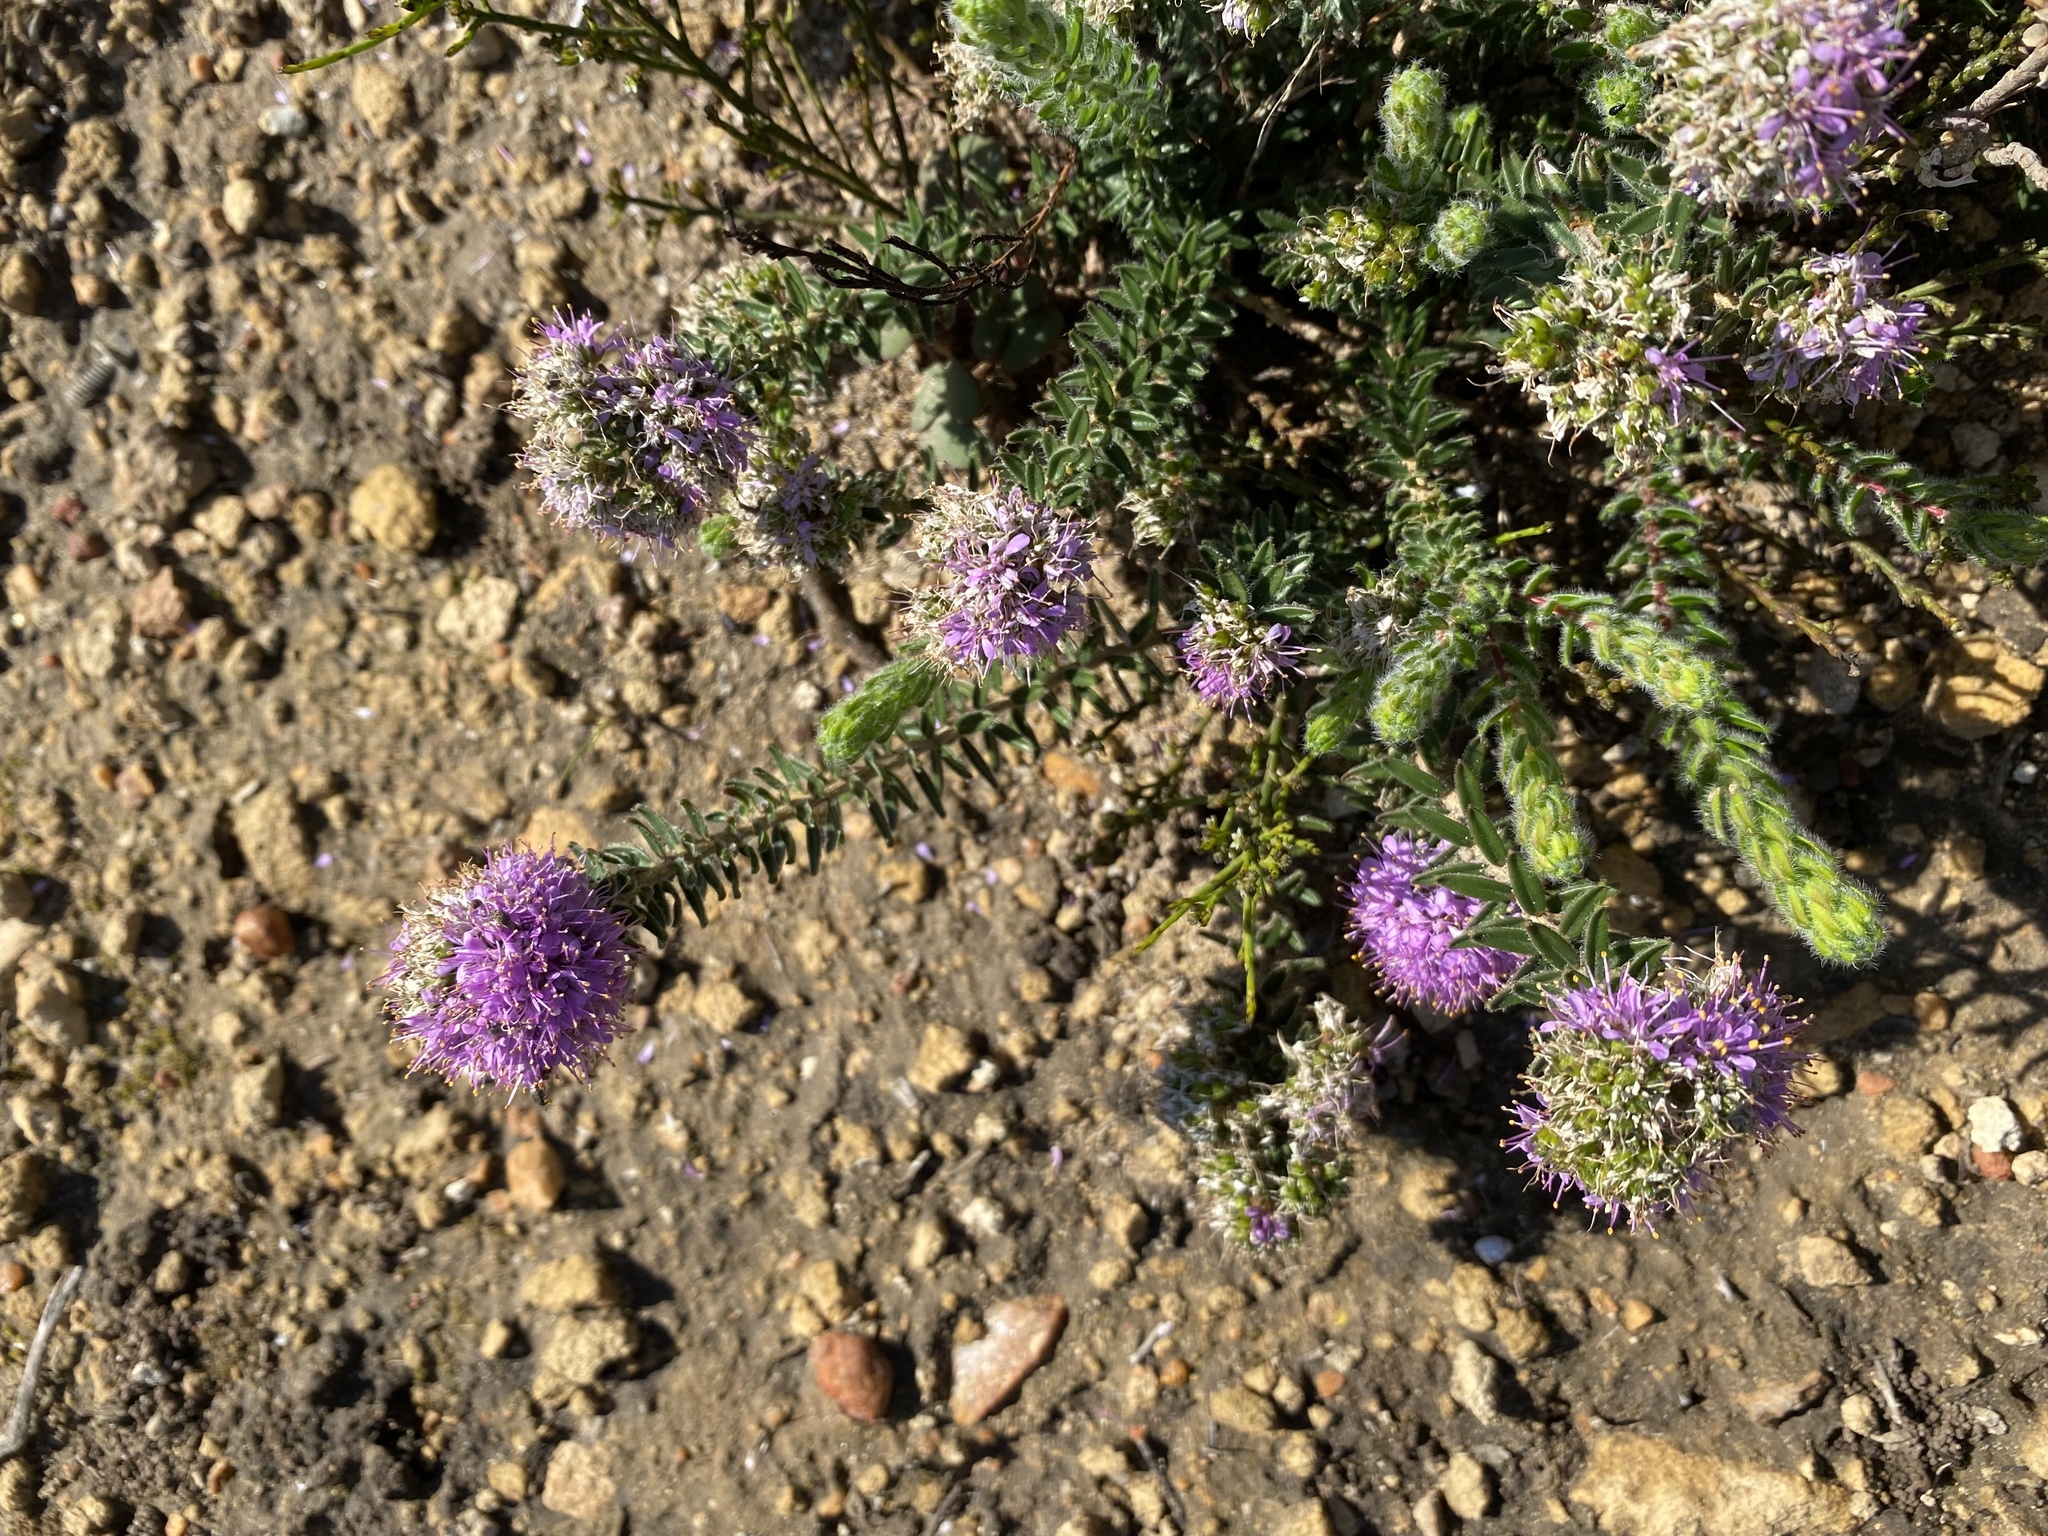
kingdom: Plantae
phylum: Tracheophyta
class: Magnoliopsida
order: Sapindales
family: Rutaceae
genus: Agathosma
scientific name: Agathosma serpyllacea
